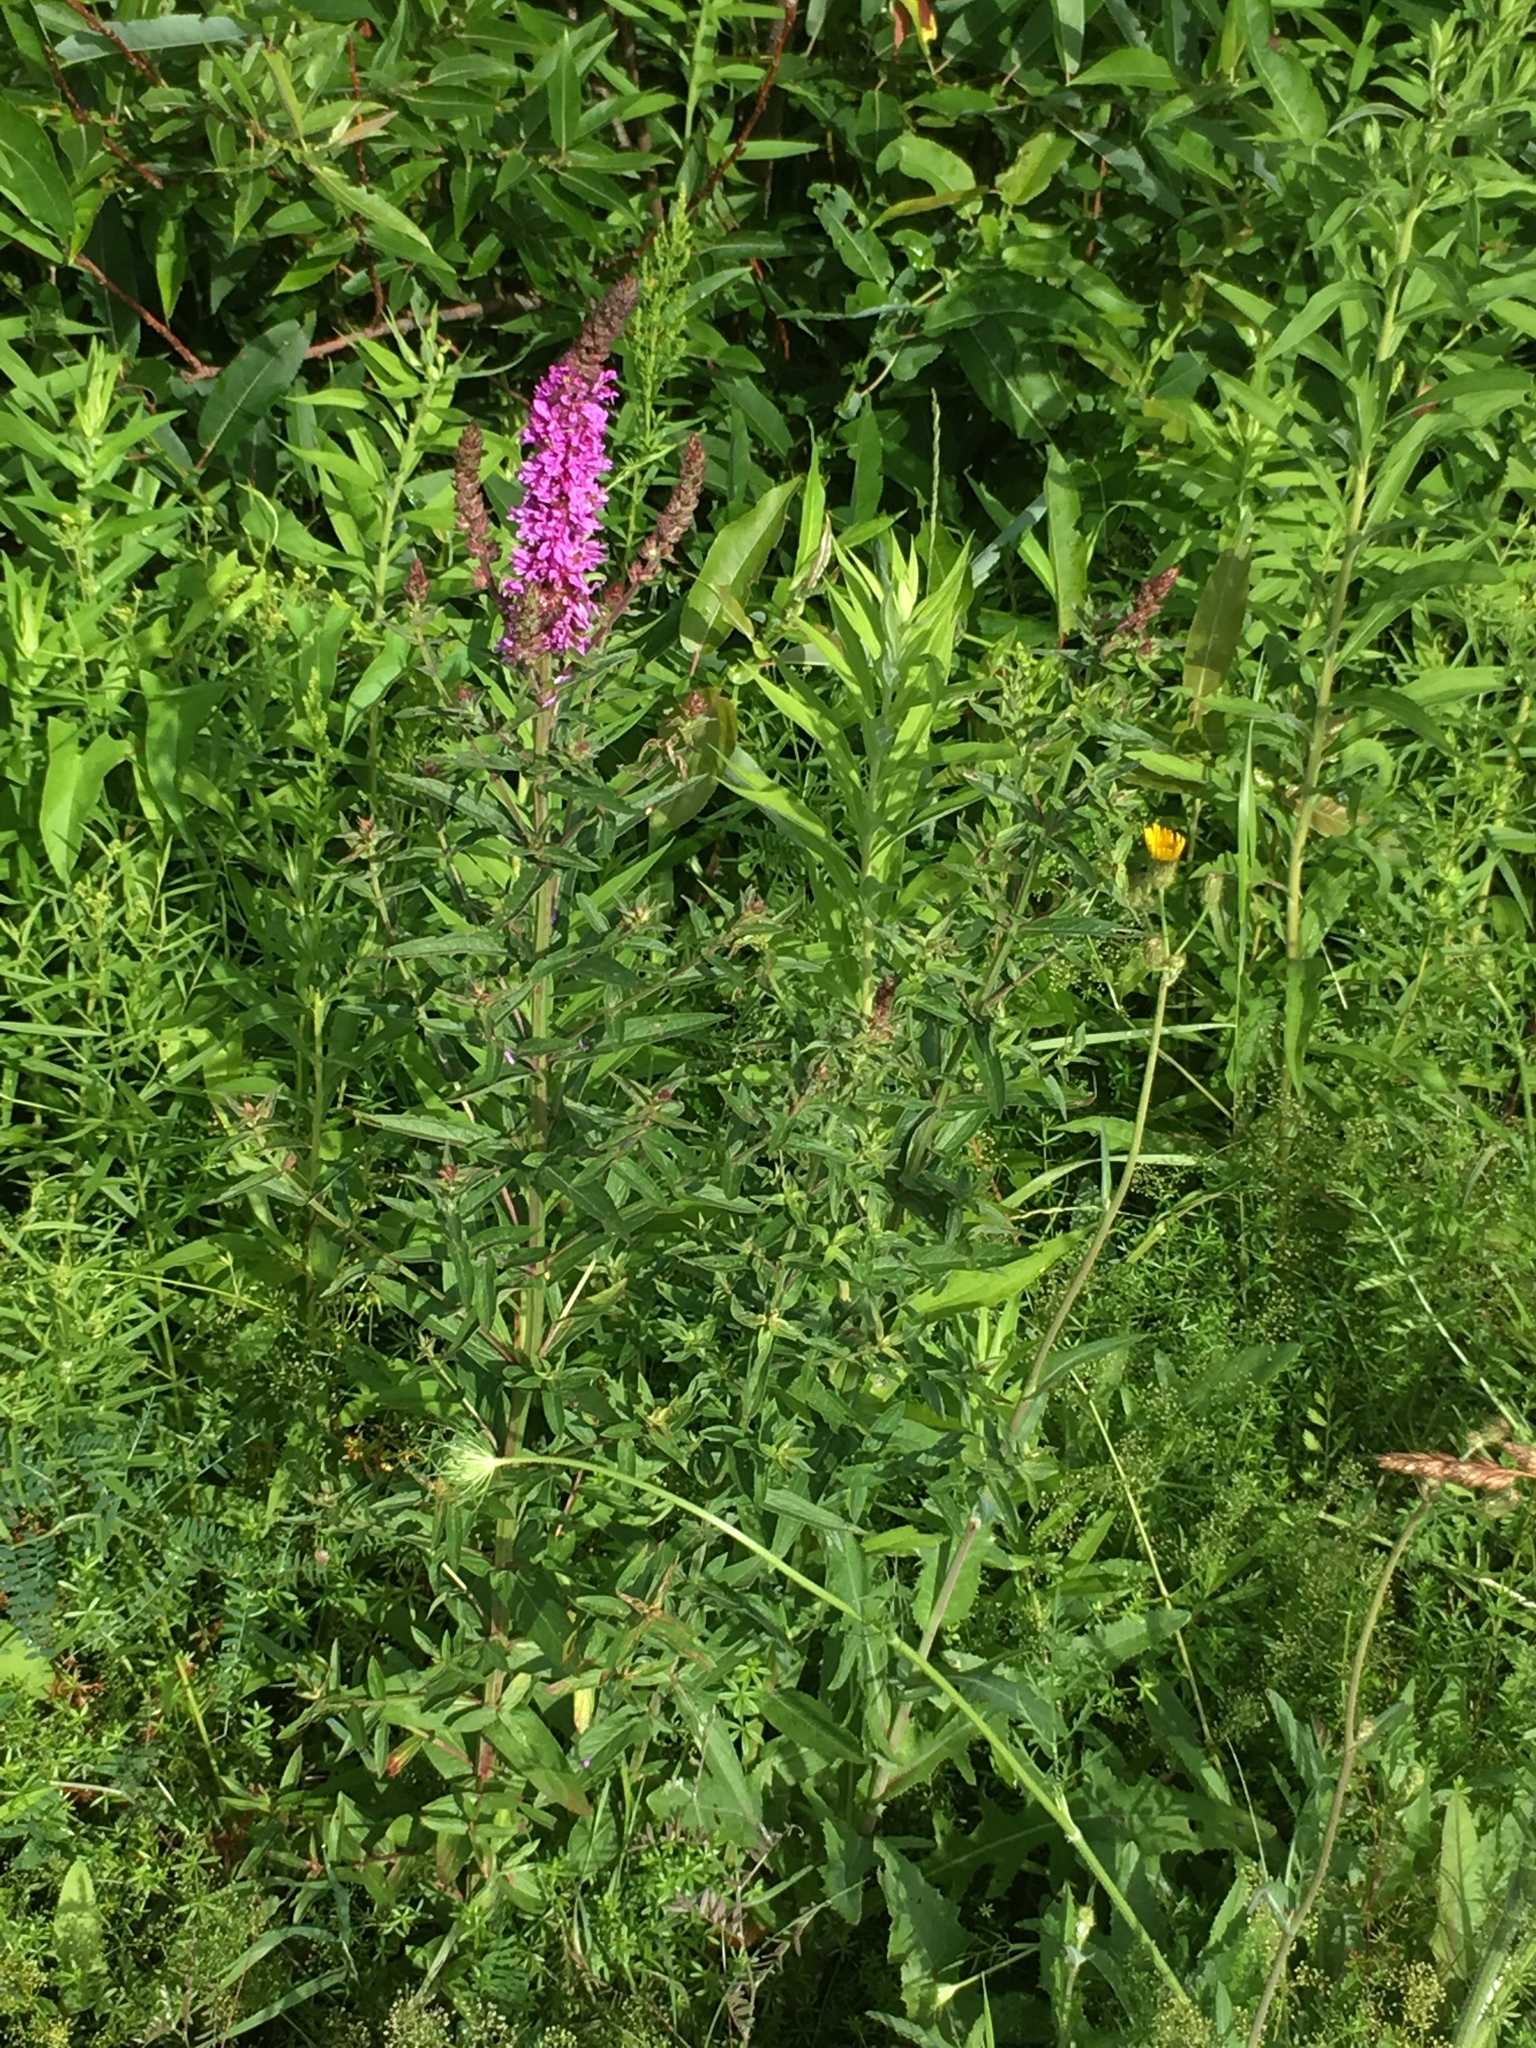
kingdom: Plantae
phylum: Tracheophyta
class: Magnoliopsida
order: Myrtales
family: Lythraceae
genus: Lythrum
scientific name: Lythrum salicaria
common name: Purple loosestrife
